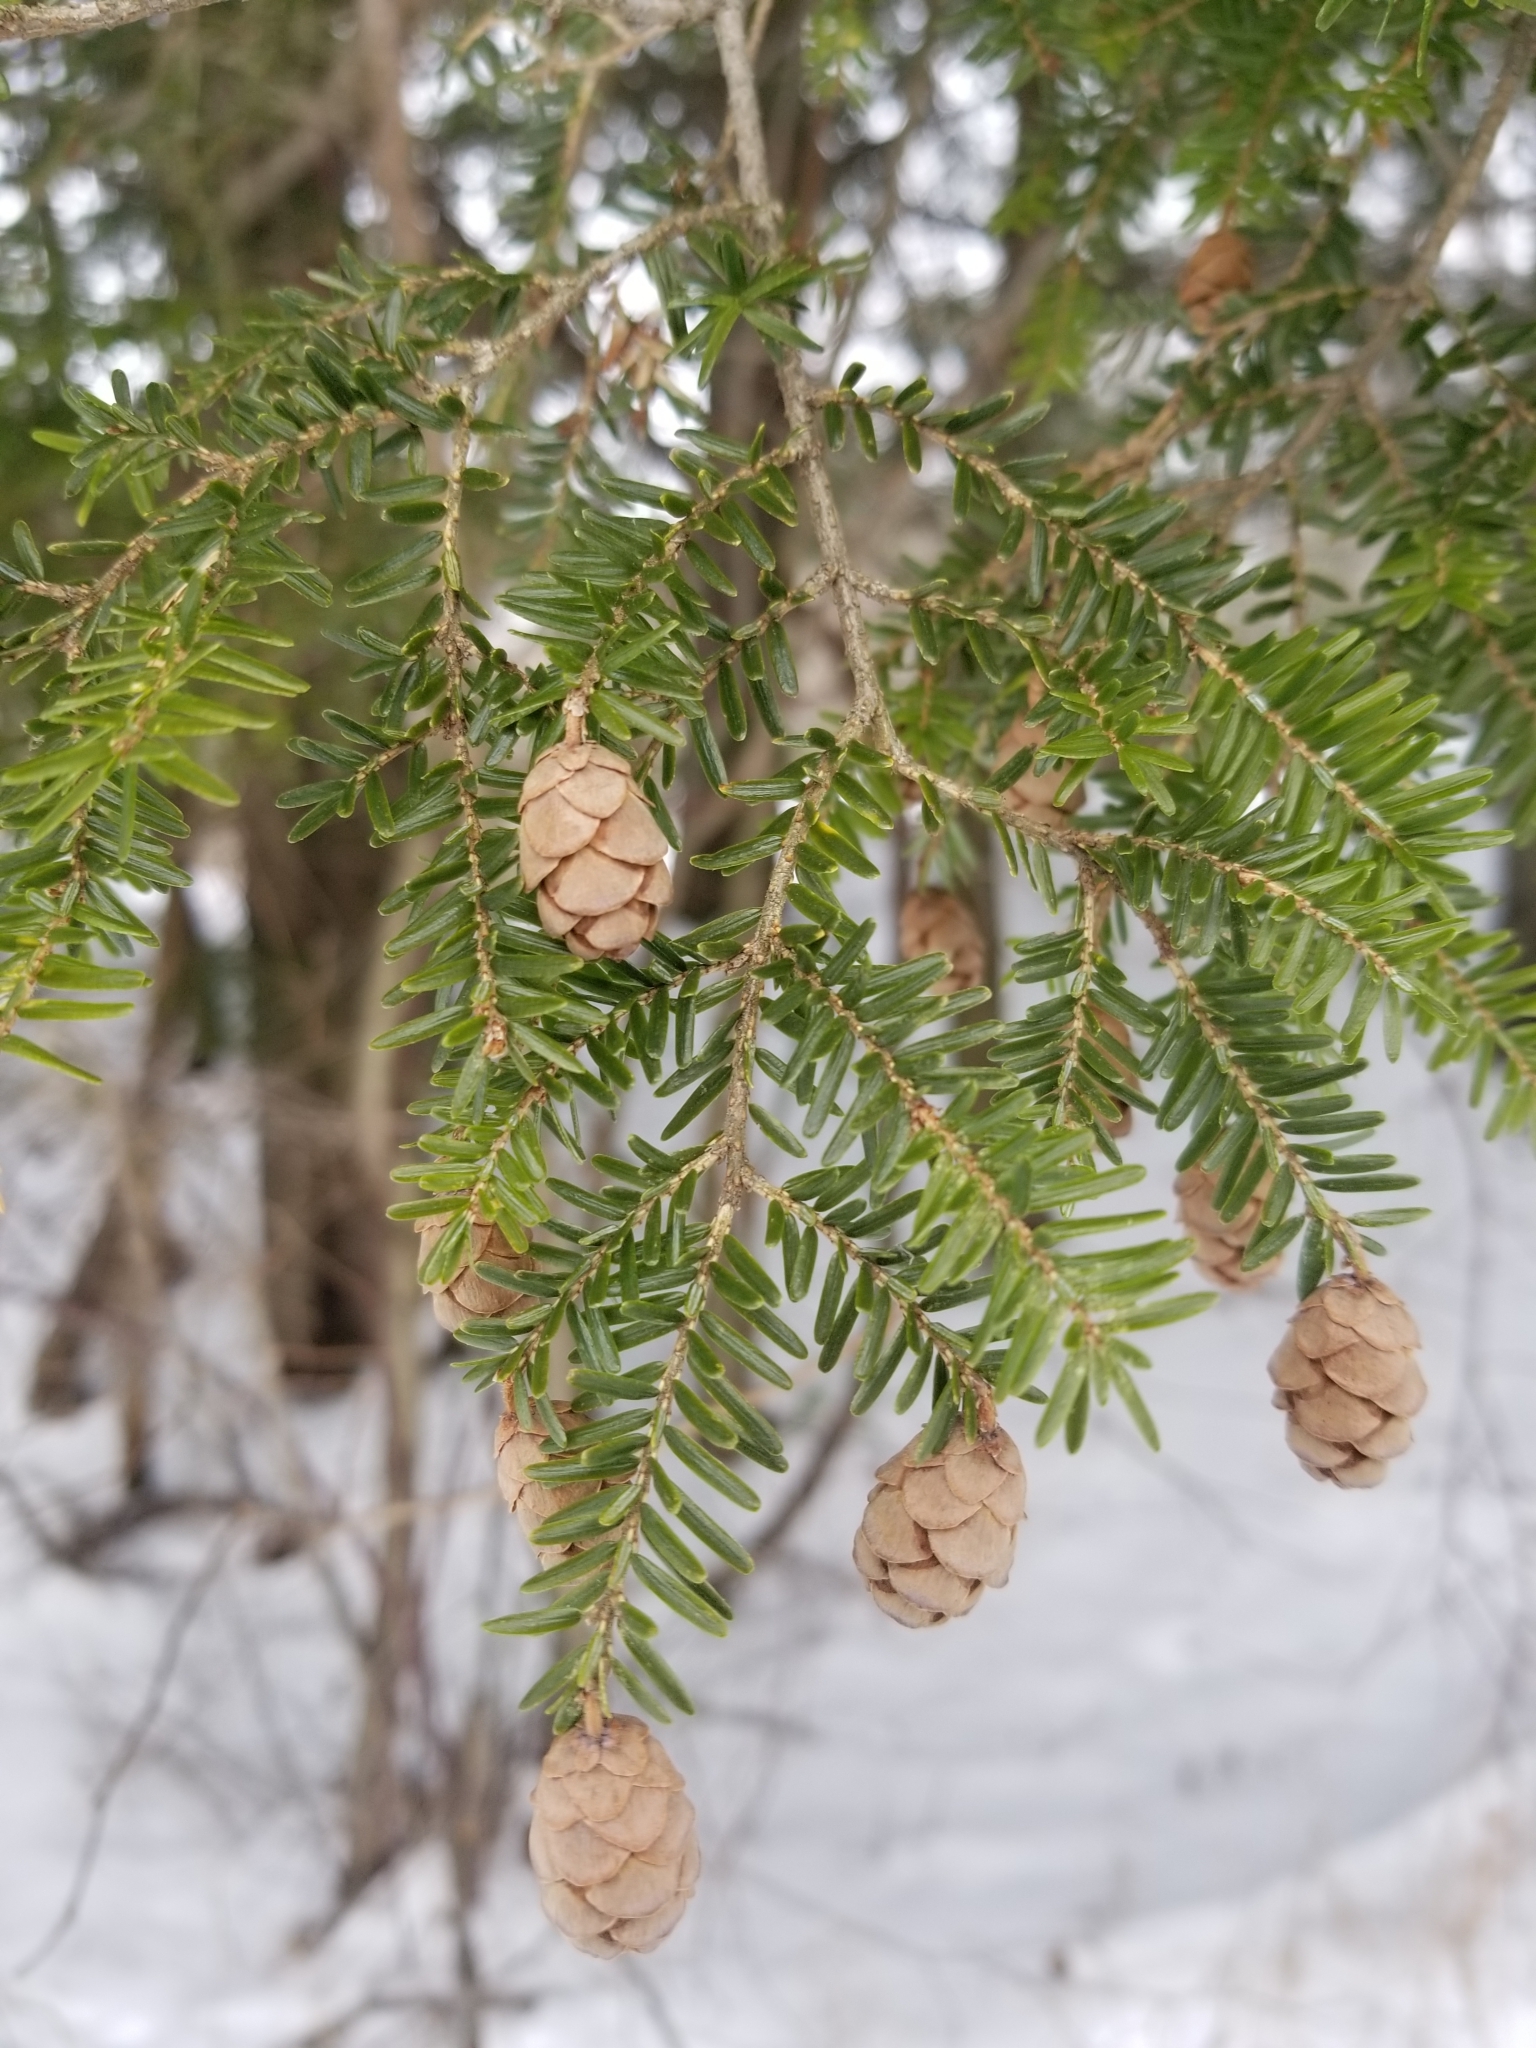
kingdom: Plantae
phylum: Tracheophyta
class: Pinopsida
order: Pinales
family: Pinaceae
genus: Tsuga
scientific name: Tsuga canadensis
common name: Eastern hemlock
